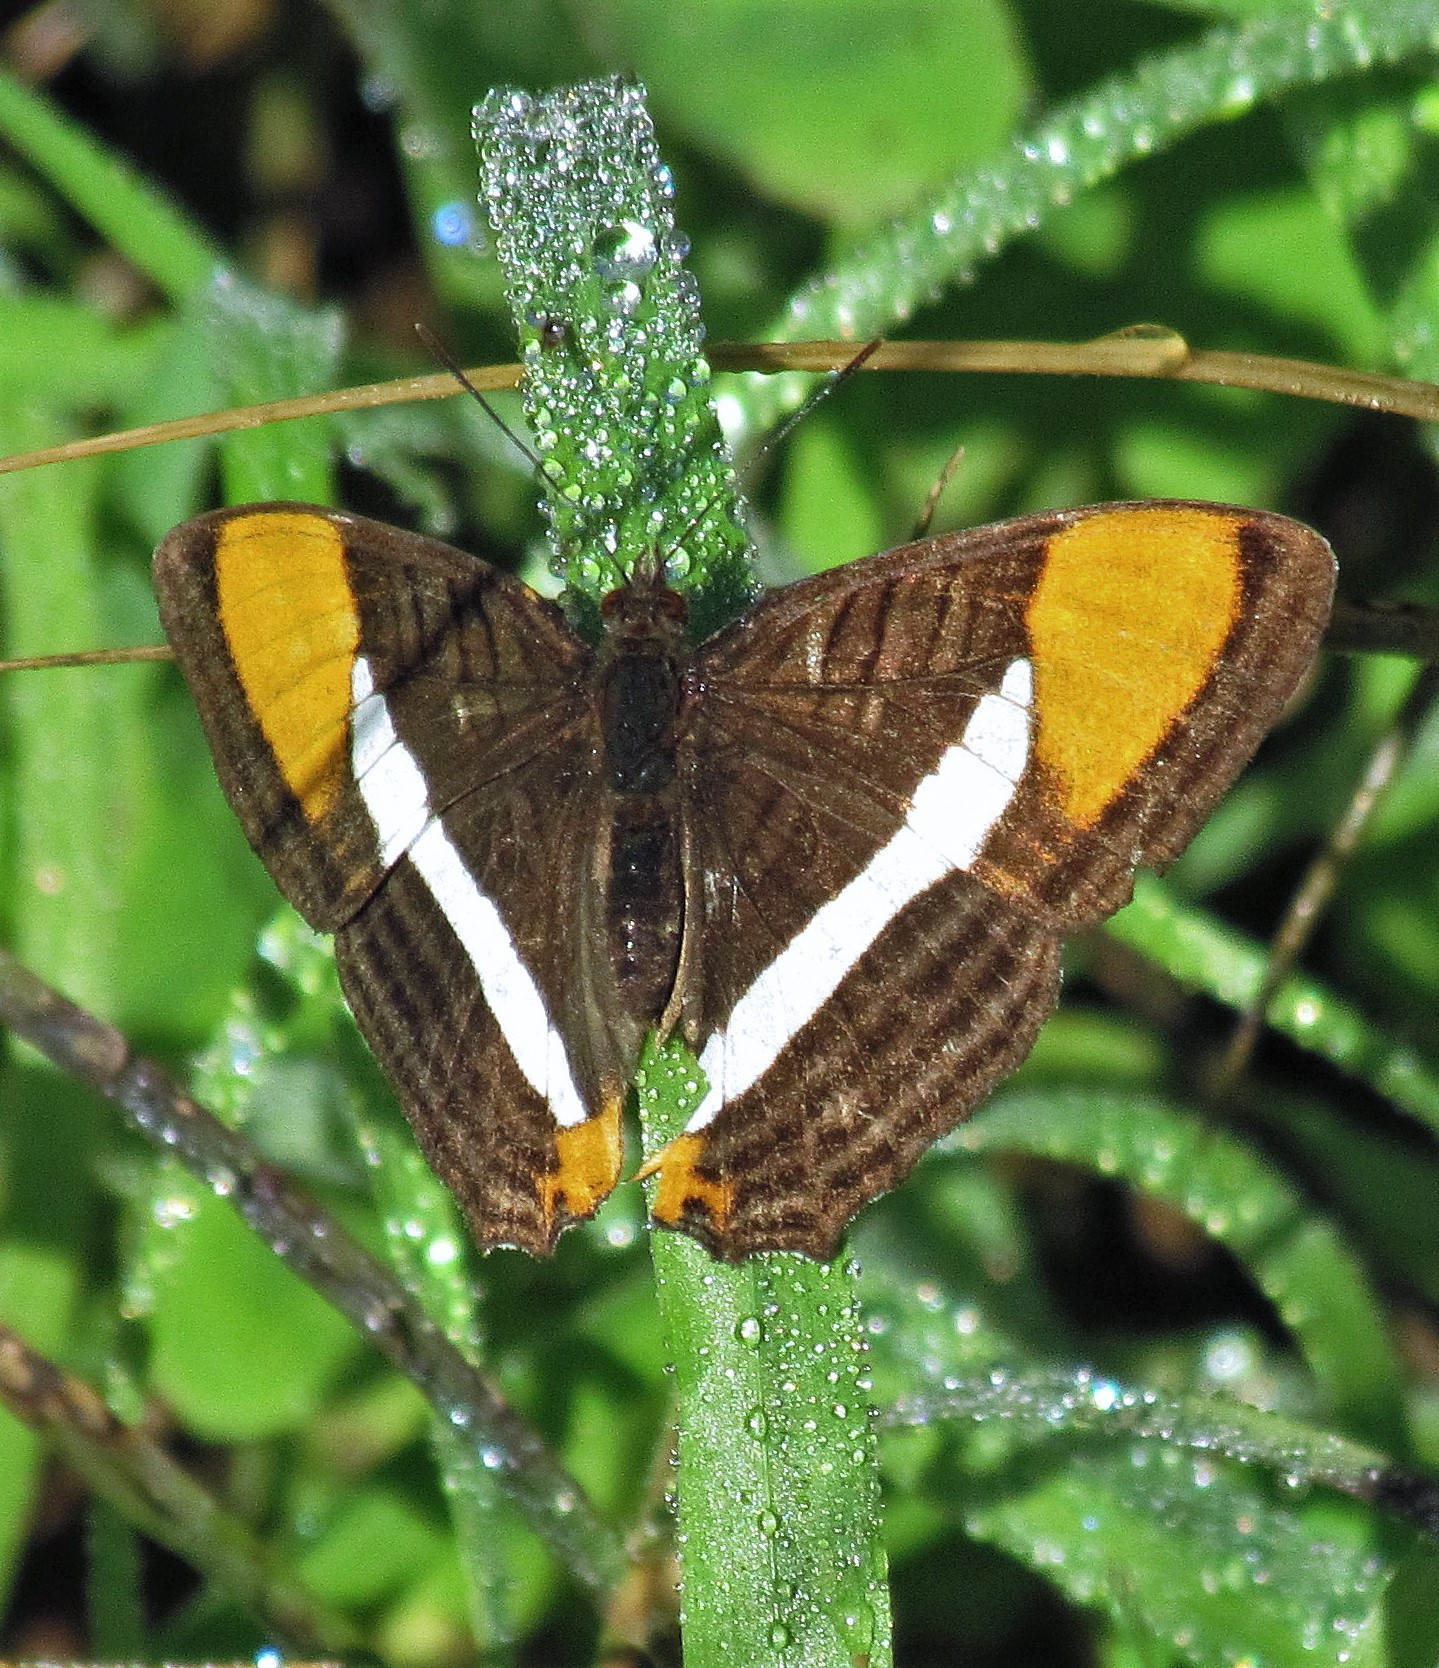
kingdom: Animalia
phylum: Arthropoda
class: Insecta
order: Lepidoptera
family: Nymphalidae
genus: Limenitis
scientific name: Limenitis syma
